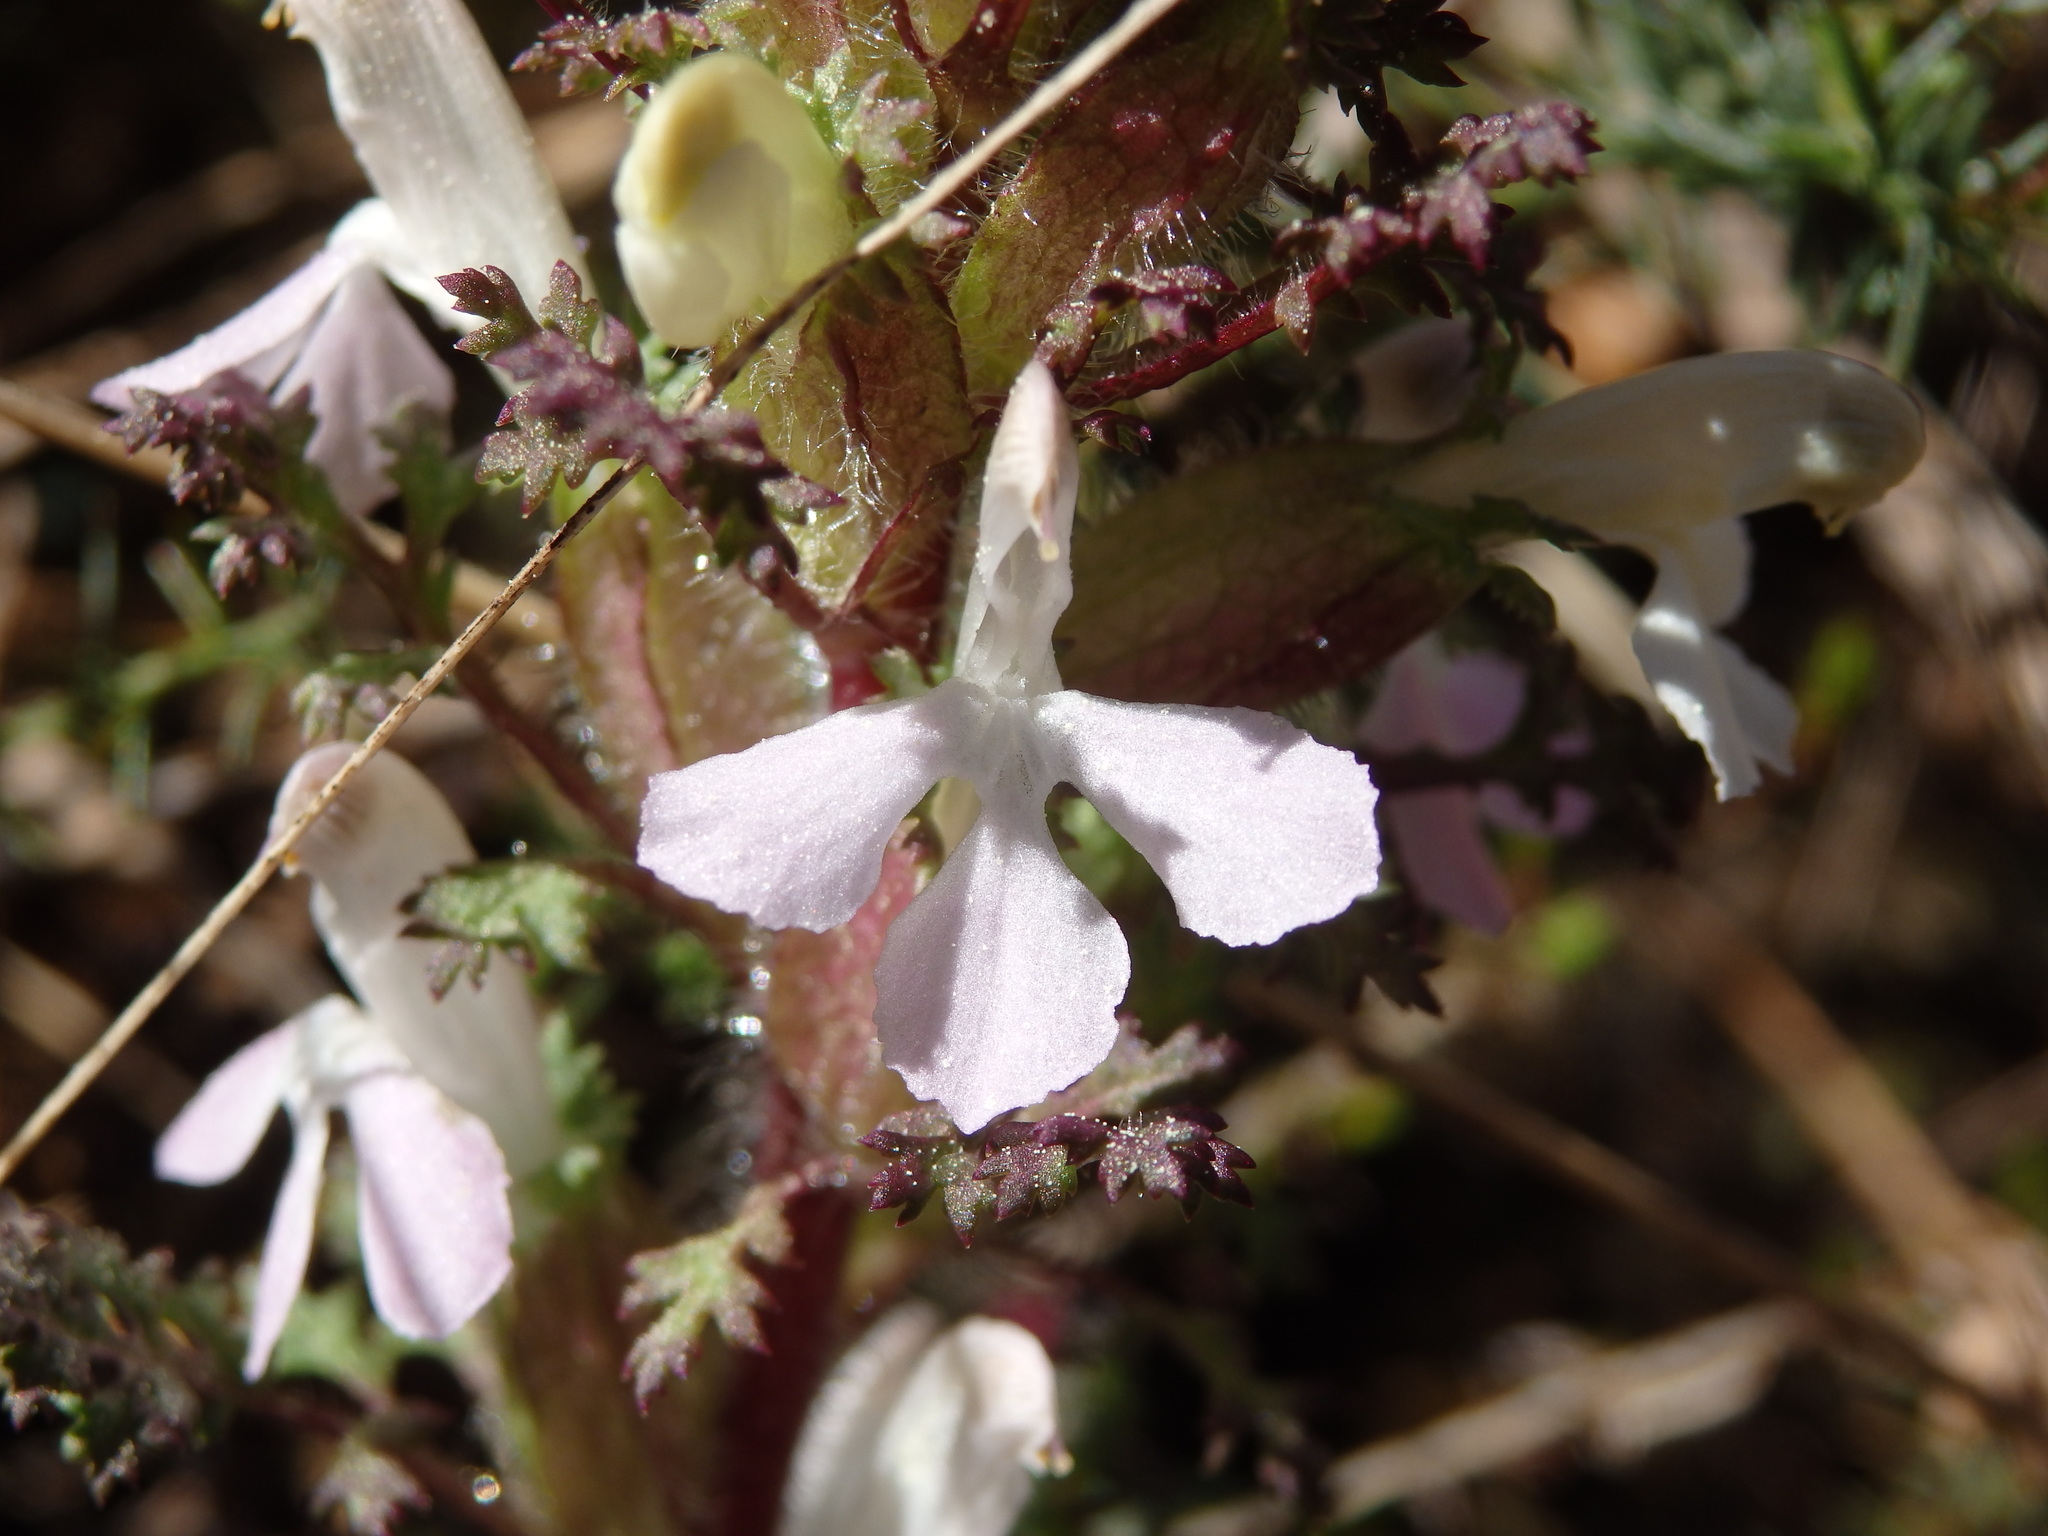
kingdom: Plantae
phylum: Tracheophyta
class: Magnoliopsida
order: Lamiales
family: Orobanchaceae
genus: Pedicularis
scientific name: Pedicularis sylvatica
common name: Lousewort
